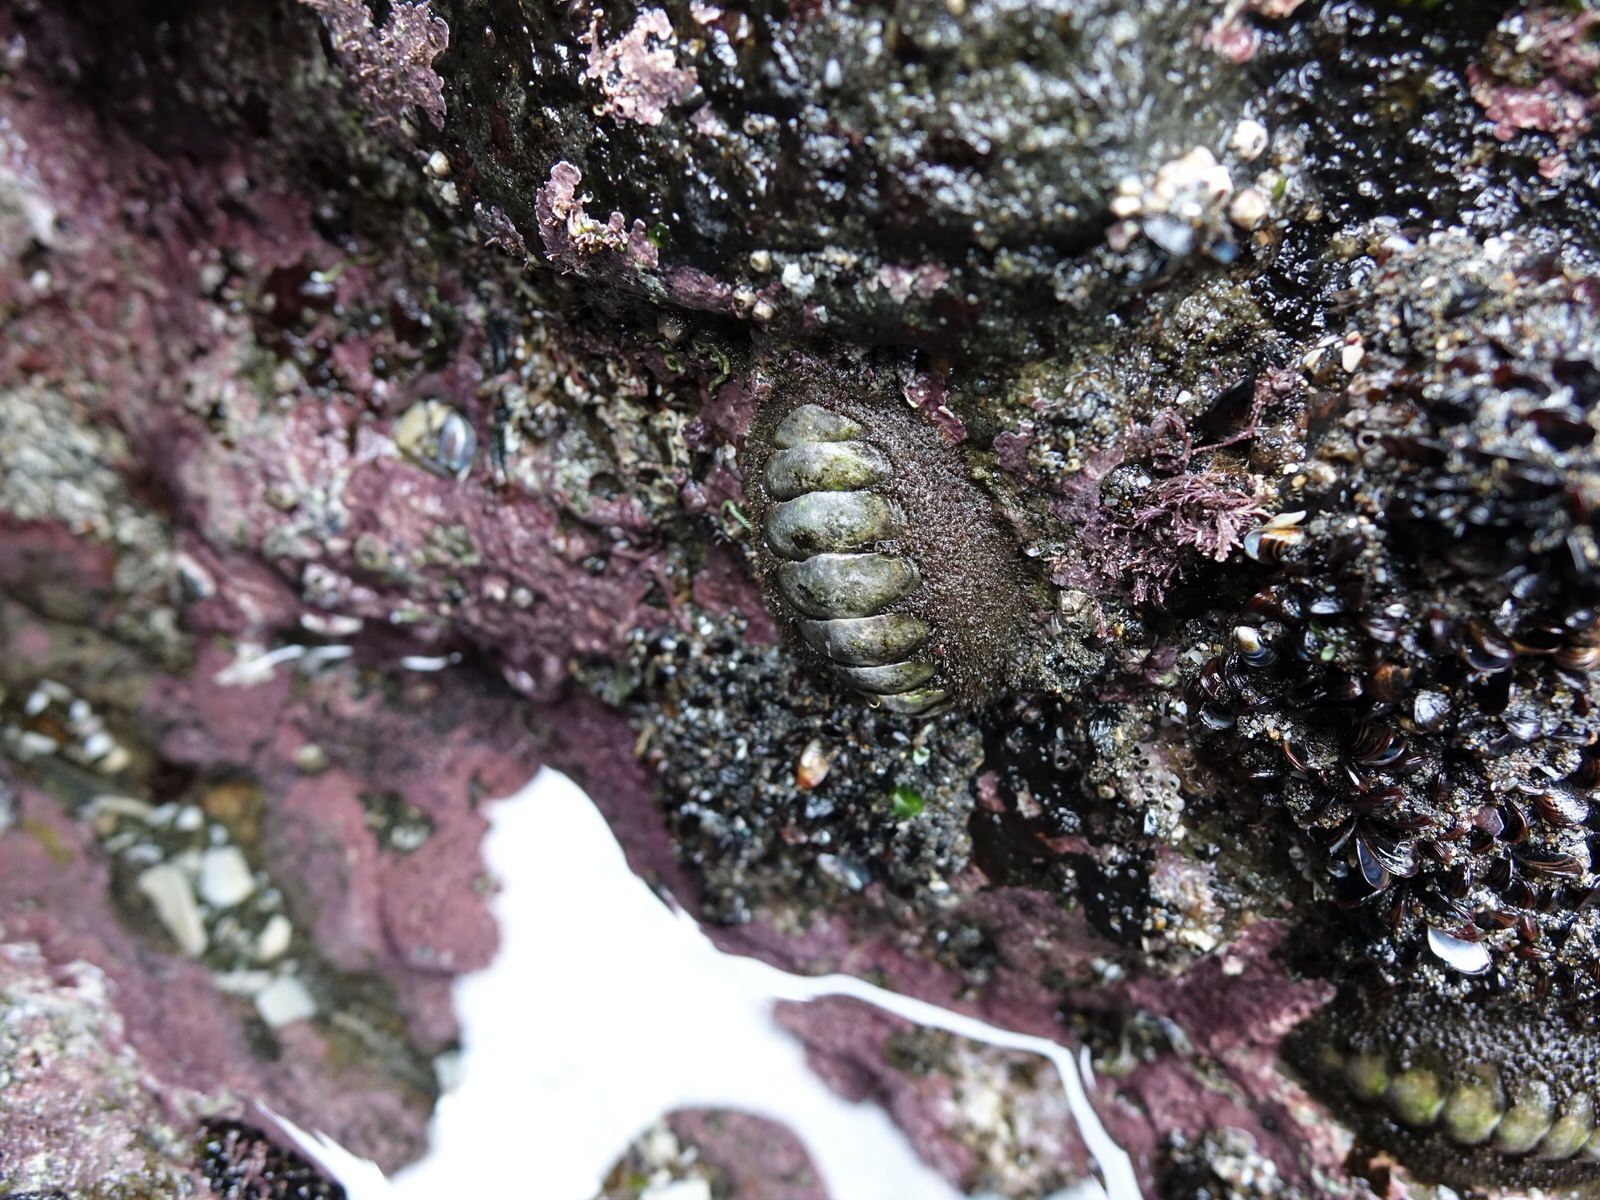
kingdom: Animalia
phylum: Mollusca
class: Polyplacophora
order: Chitonida
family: Mopaliidae
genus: Plaxiphora
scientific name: Plaxiphora obtecta
